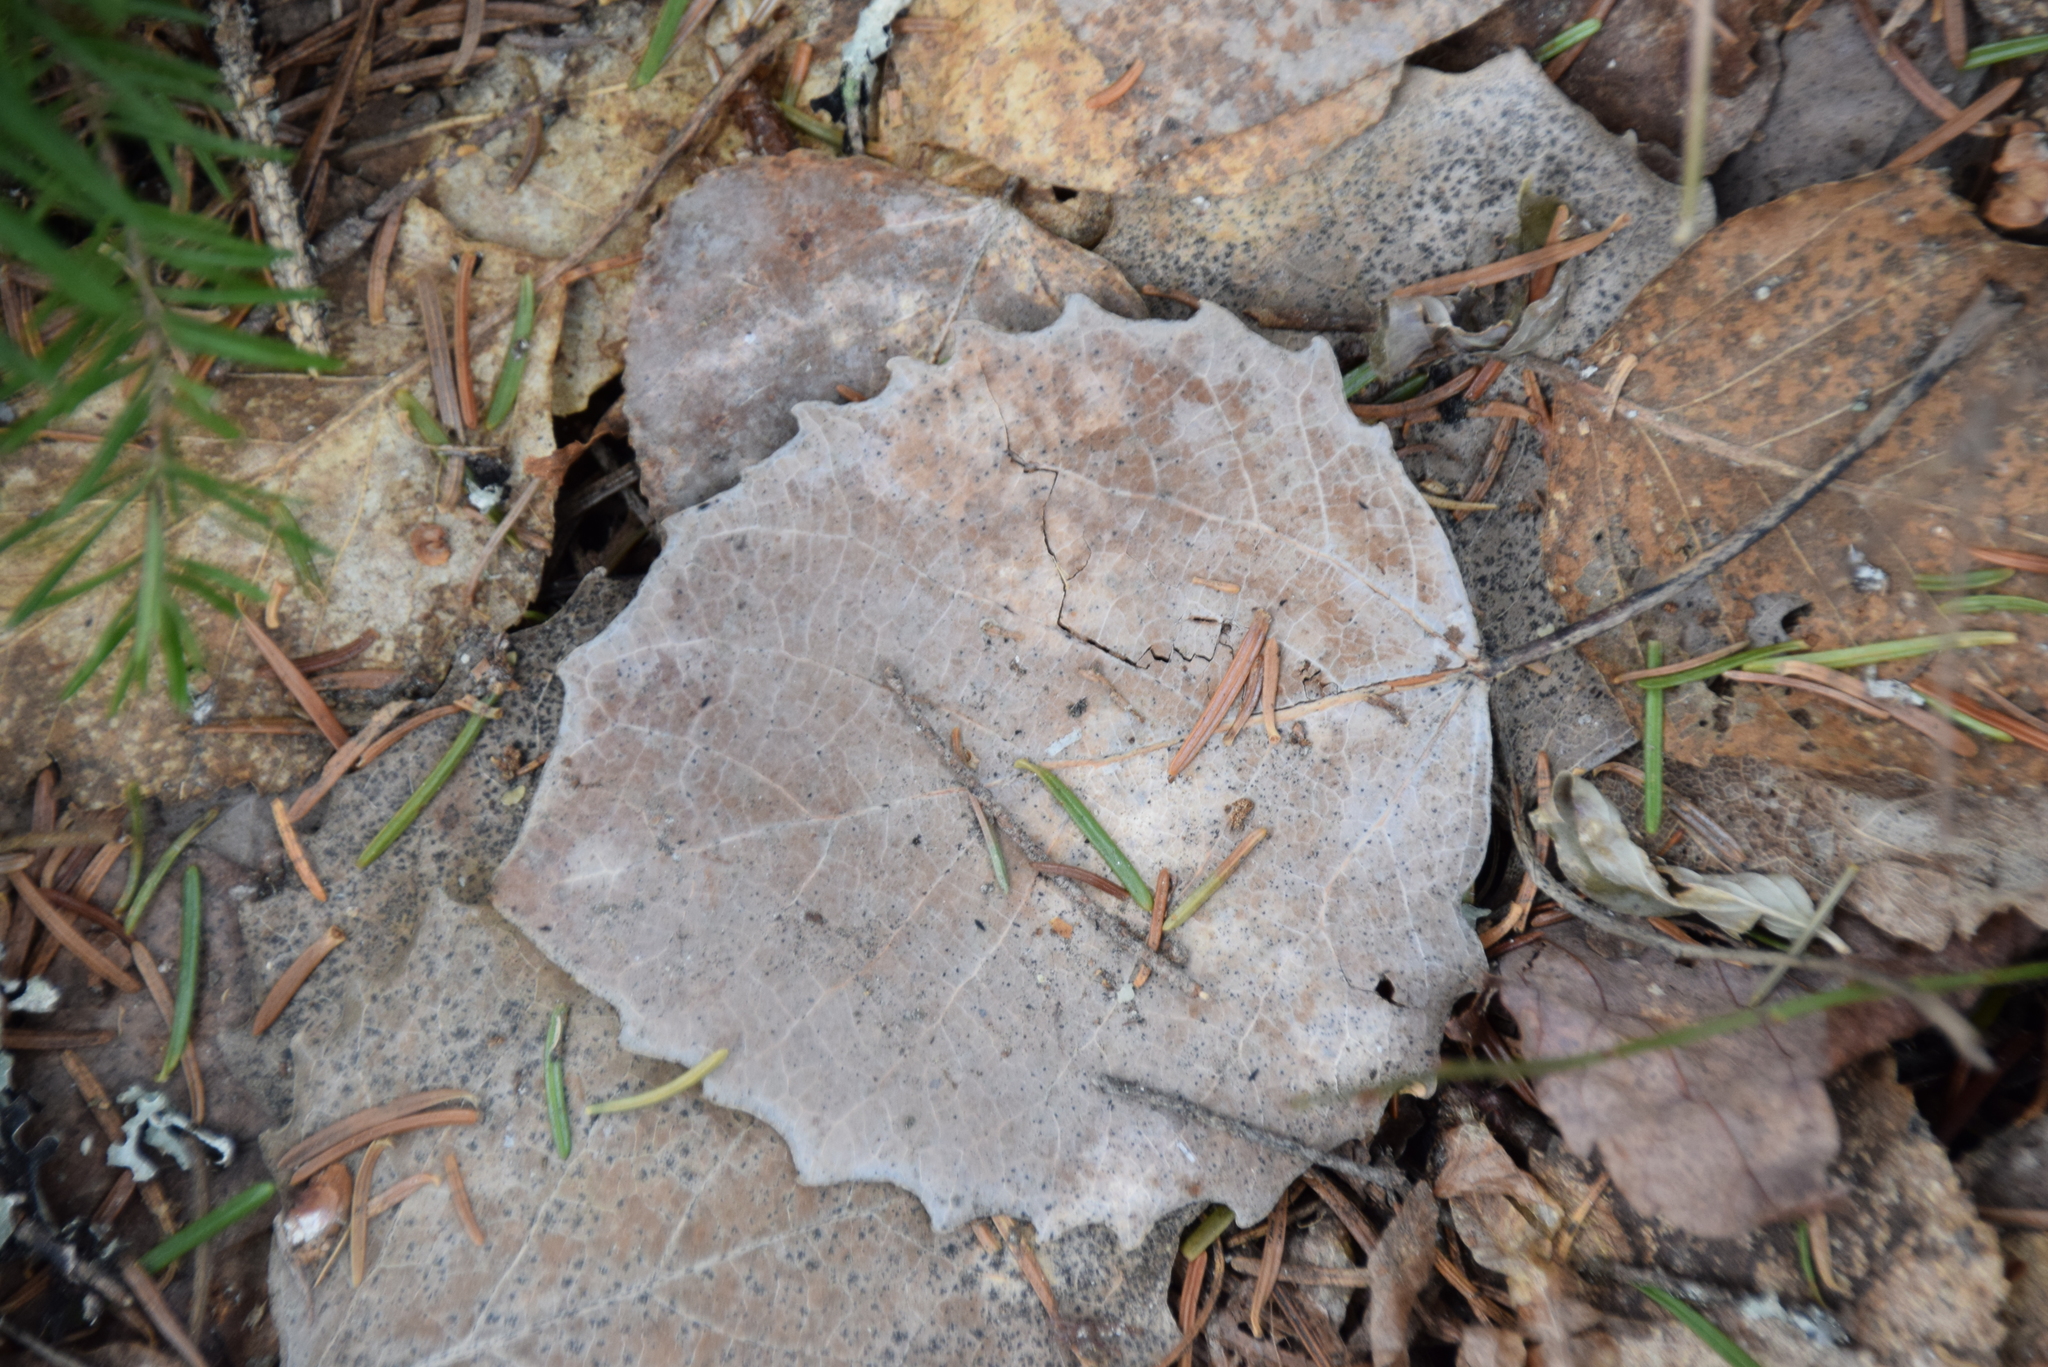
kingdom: Plantae
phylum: Tracheophyta
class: Magnoliopsida
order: Malpighiales
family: Salicaceae
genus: Populus
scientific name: Populus grandidentata
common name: Bigtooth aspen
